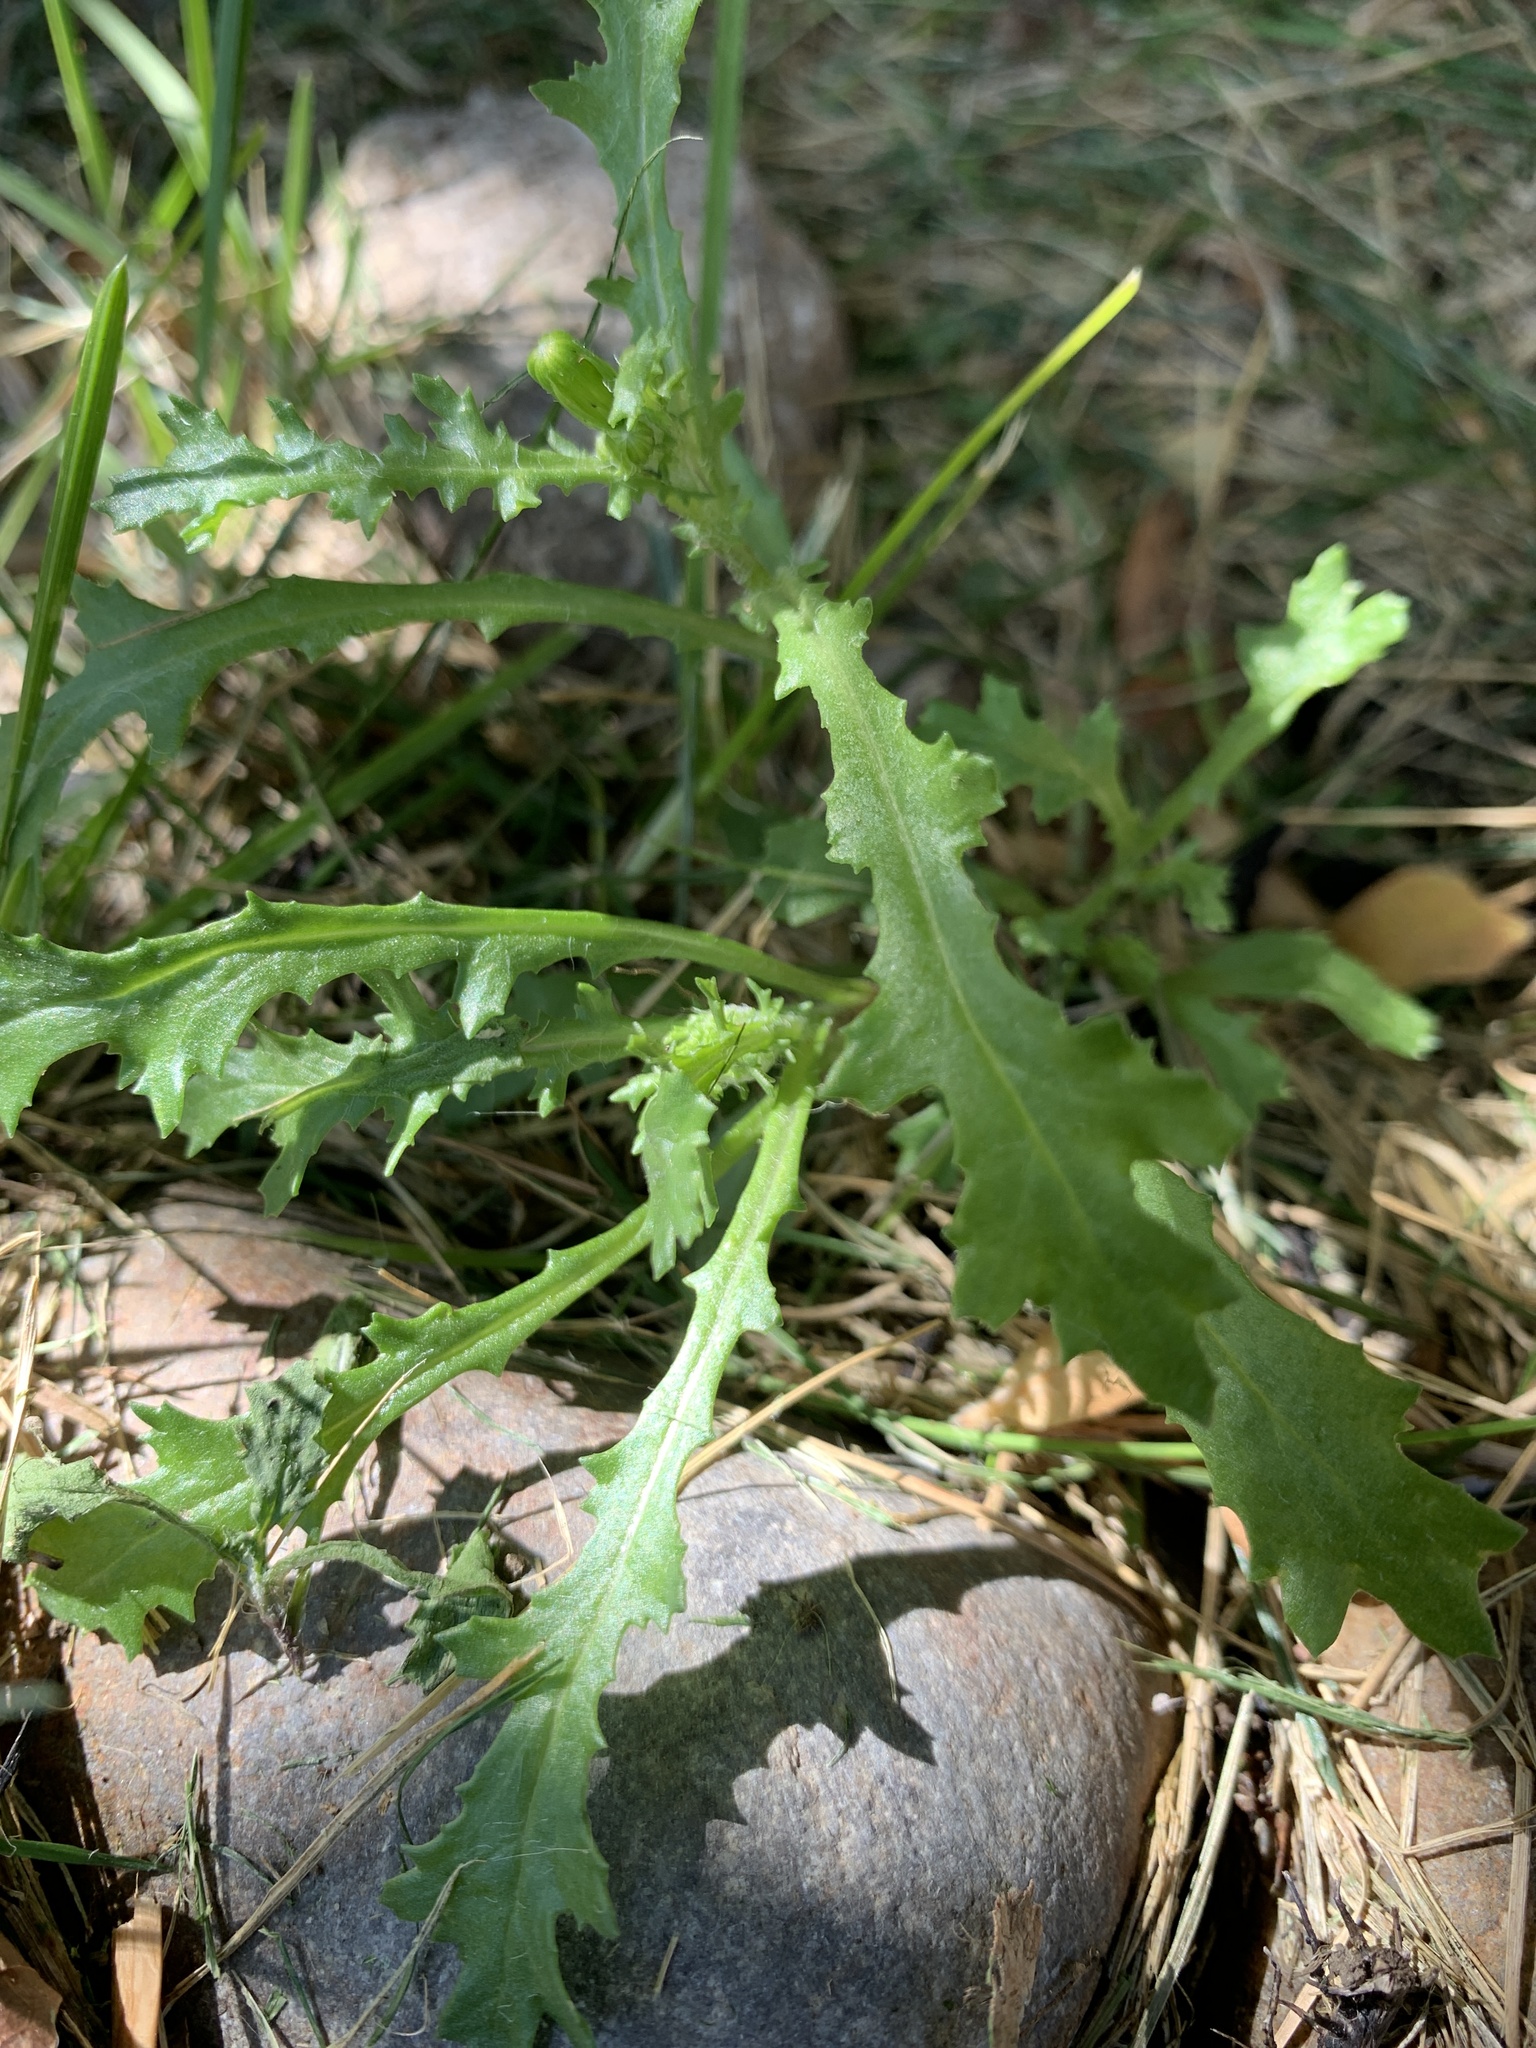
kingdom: Plantae
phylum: Tracheophyta
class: Magnoliopsida
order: Asterales
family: Asteraceae
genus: Senecio
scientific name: Senecio vulgaris
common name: Old-man-in-the-spring
